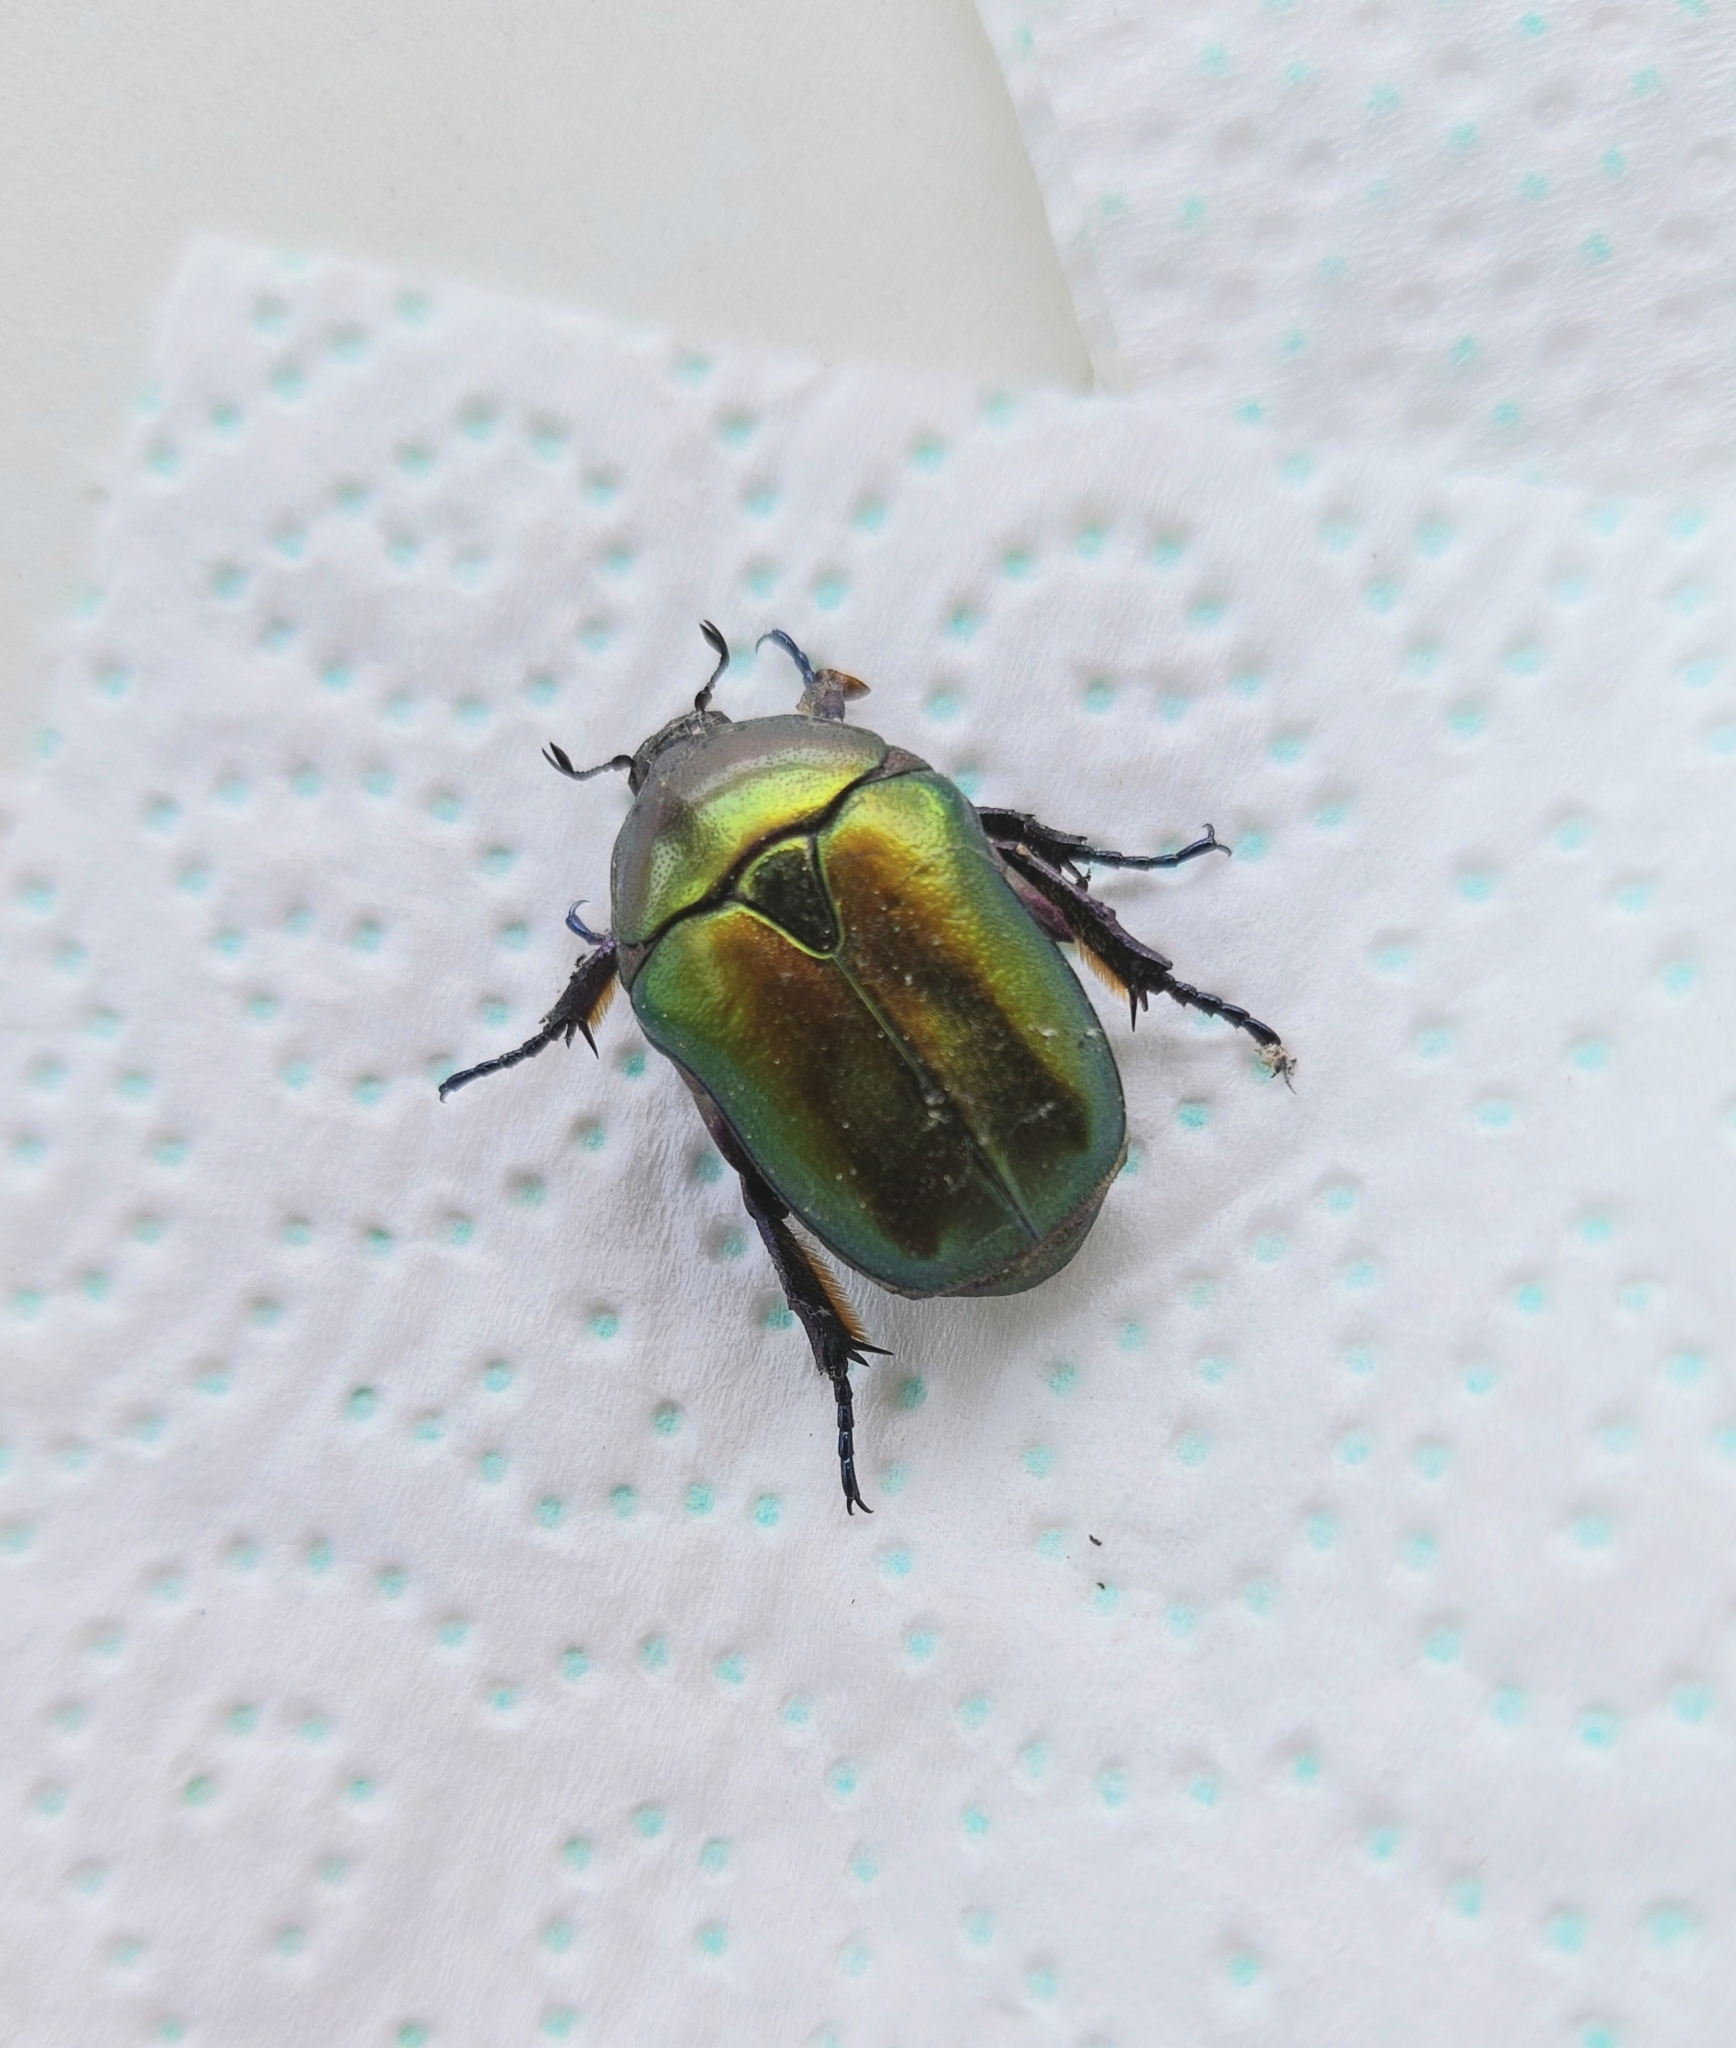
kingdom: Animalia
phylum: Arthropoda
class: Insecta
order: Coleoptera
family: Scarabaeidae
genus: Protaetia
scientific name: Protaetia cuprea
